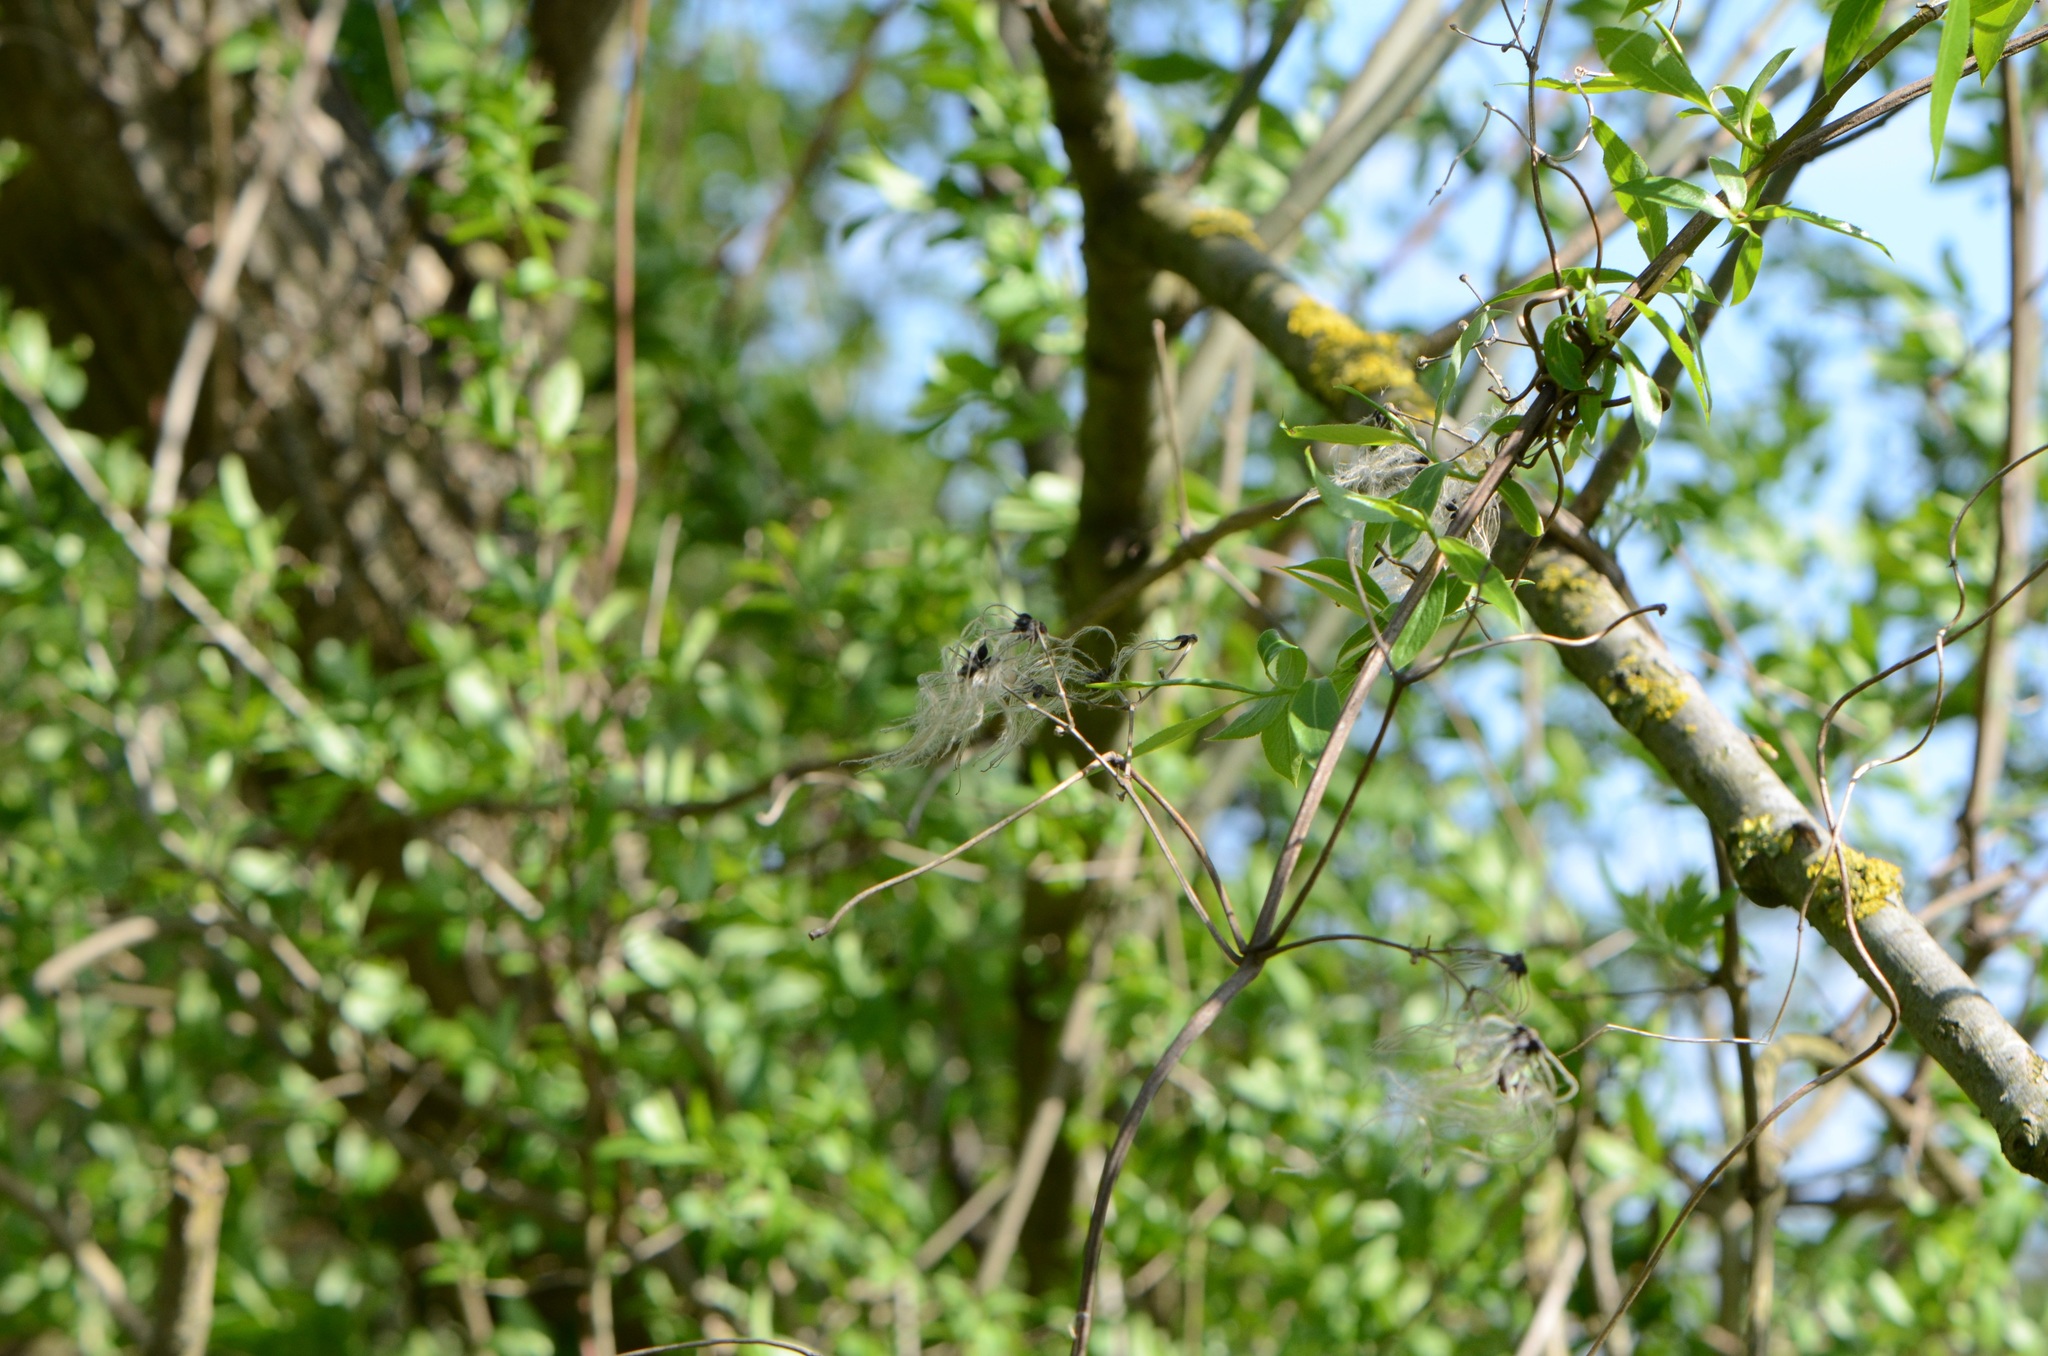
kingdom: Plantae
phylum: Tracheophyta
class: Magnoliopsida
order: Ranunculales
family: Ranunculaceae
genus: Clematis
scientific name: Clematis vitalba
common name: Evergreen clematis
